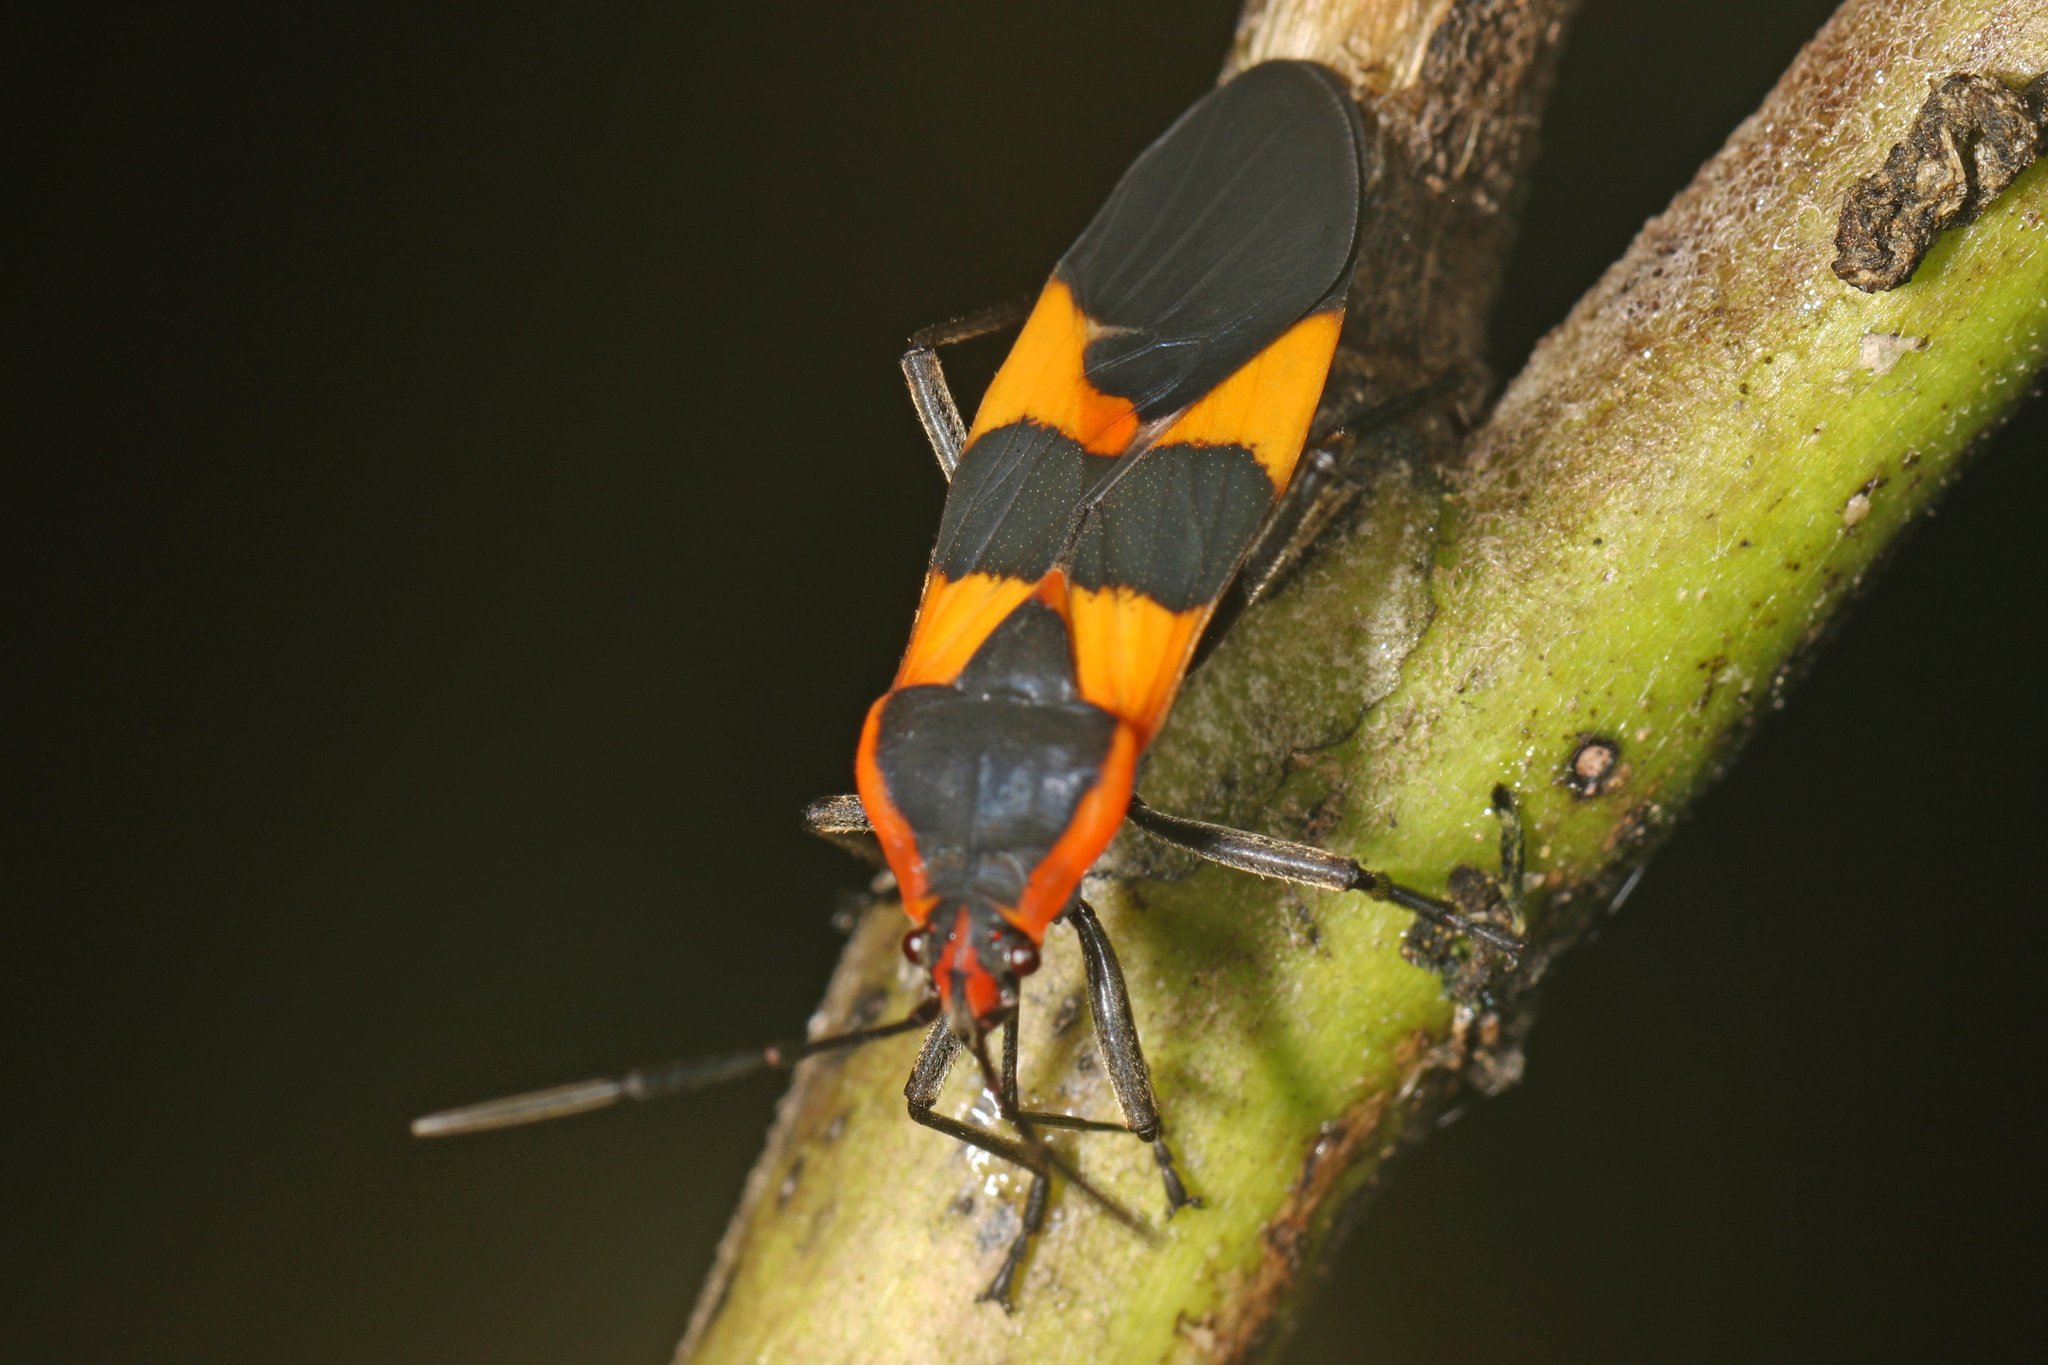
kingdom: Animalia
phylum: Arthropoda
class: Insecta
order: Hemiptera
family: Lygaeidae
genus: Oncopeltus
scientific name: Oncopeltus fasciatus
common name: Large milkweed bug
